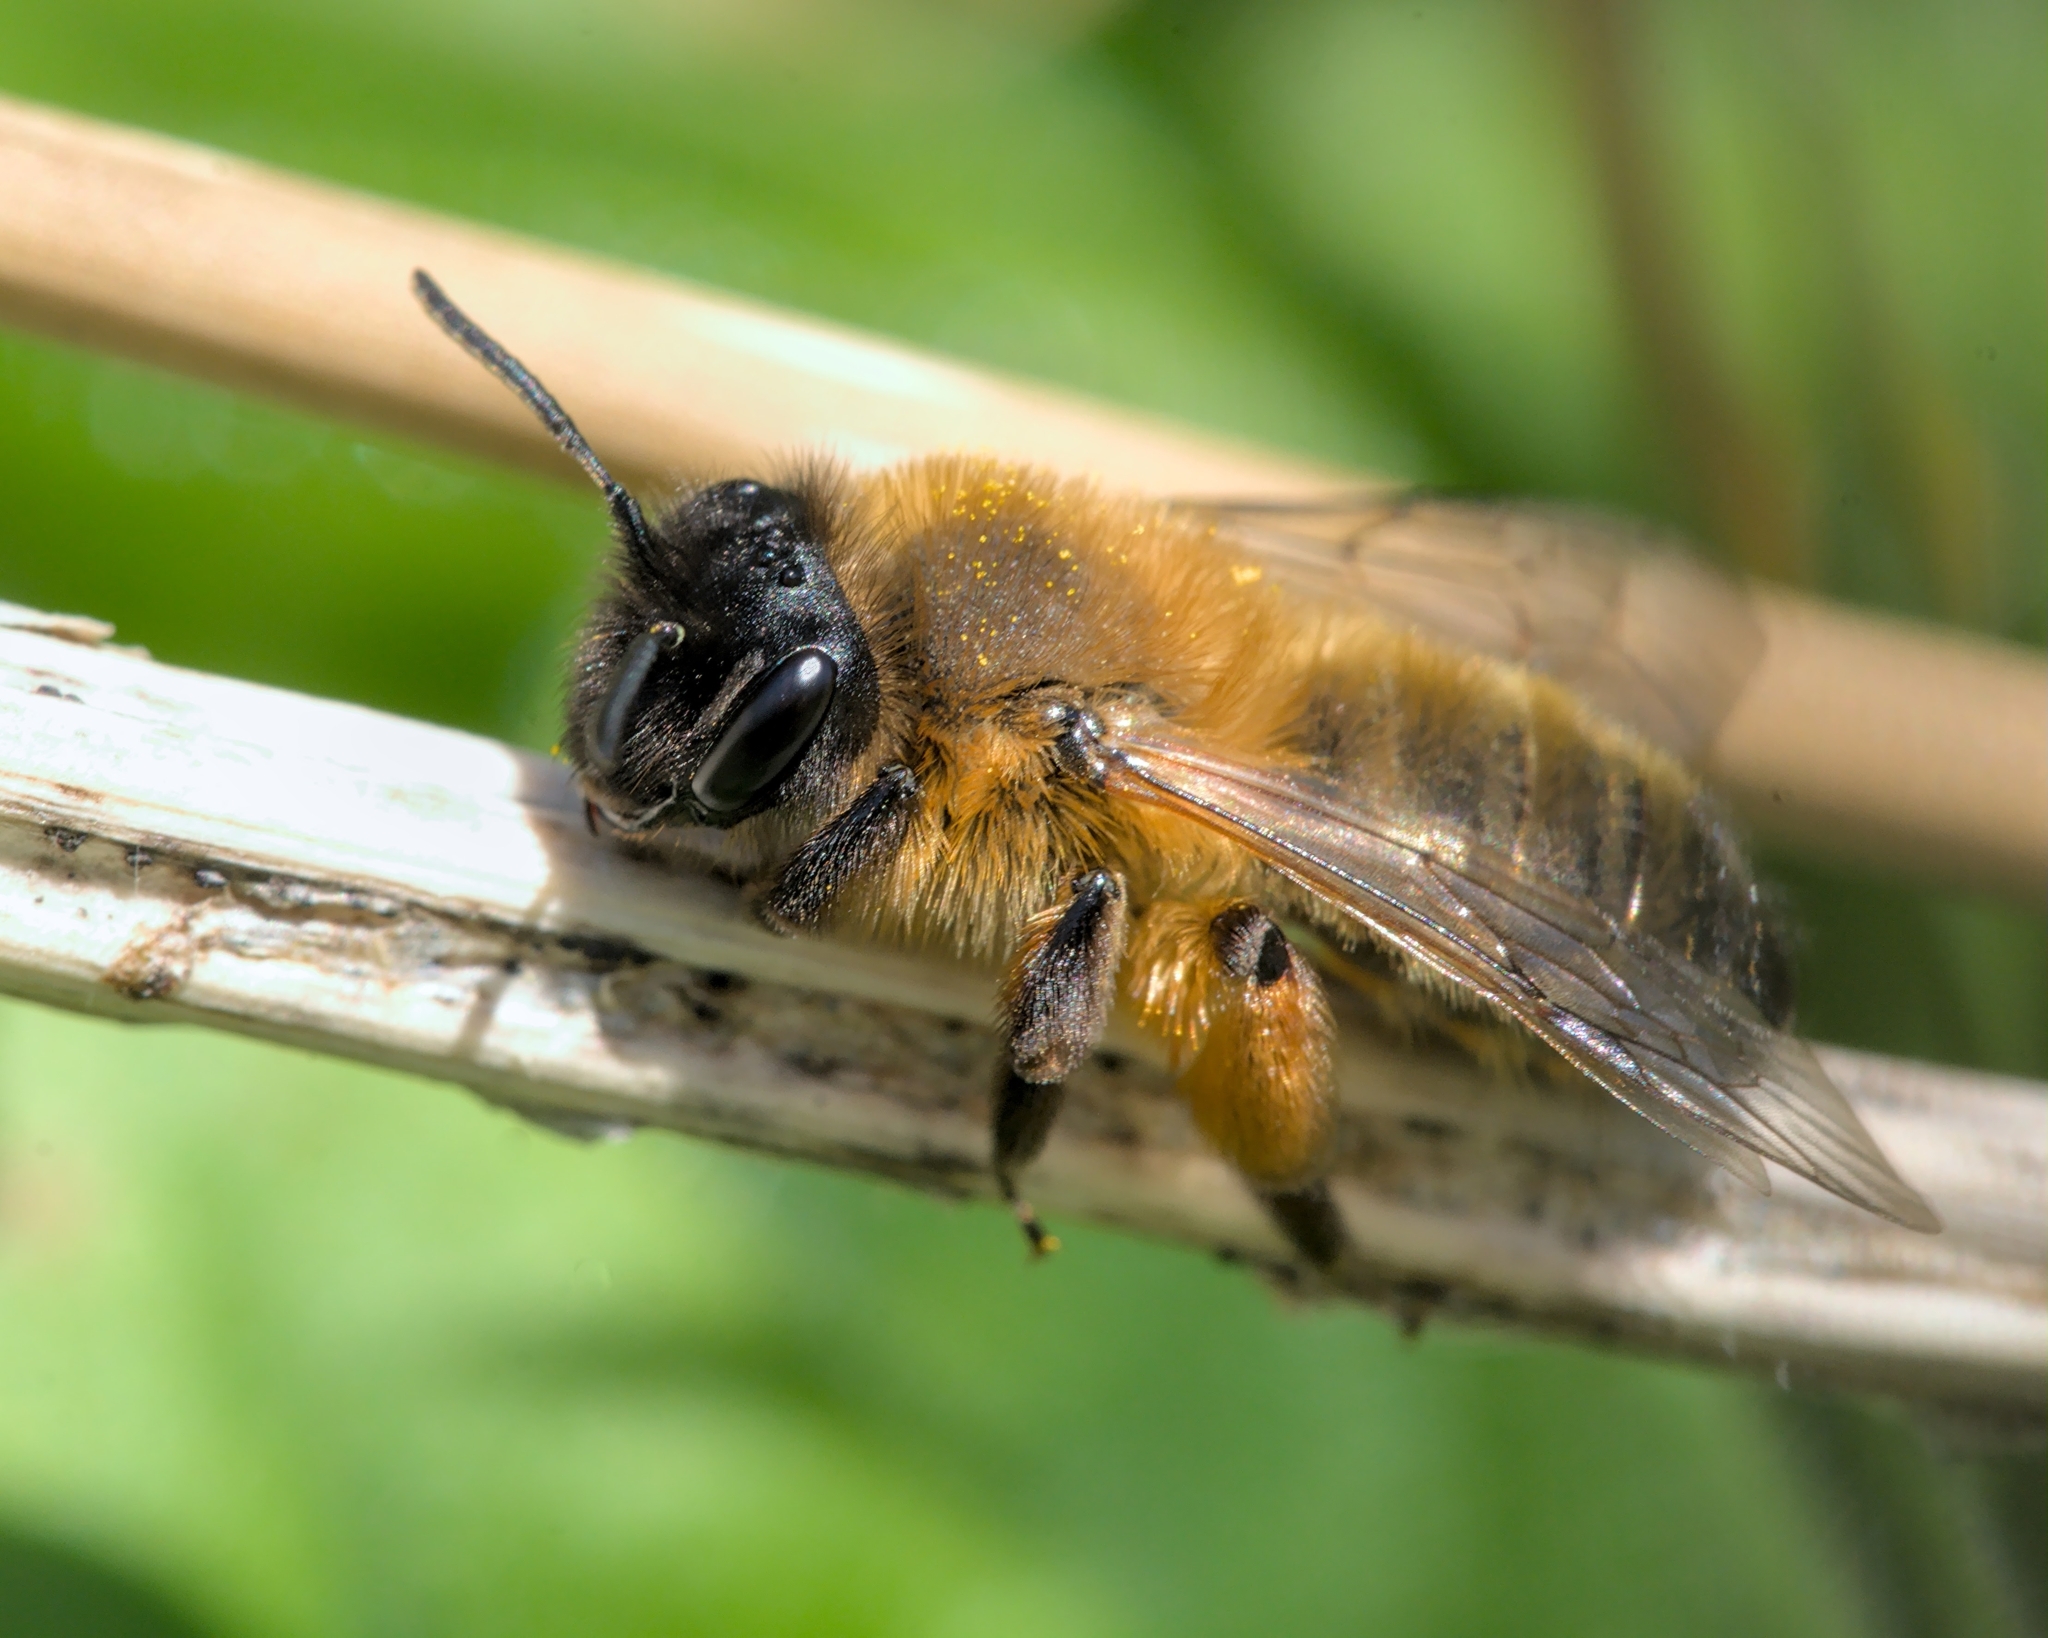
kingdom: Animalia
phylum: Arthropoda
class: Insecta
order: Hymenoptera
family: Andrenidae
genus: Andrena
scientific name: Andrena nigroaenea
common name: Buffish mining bee
